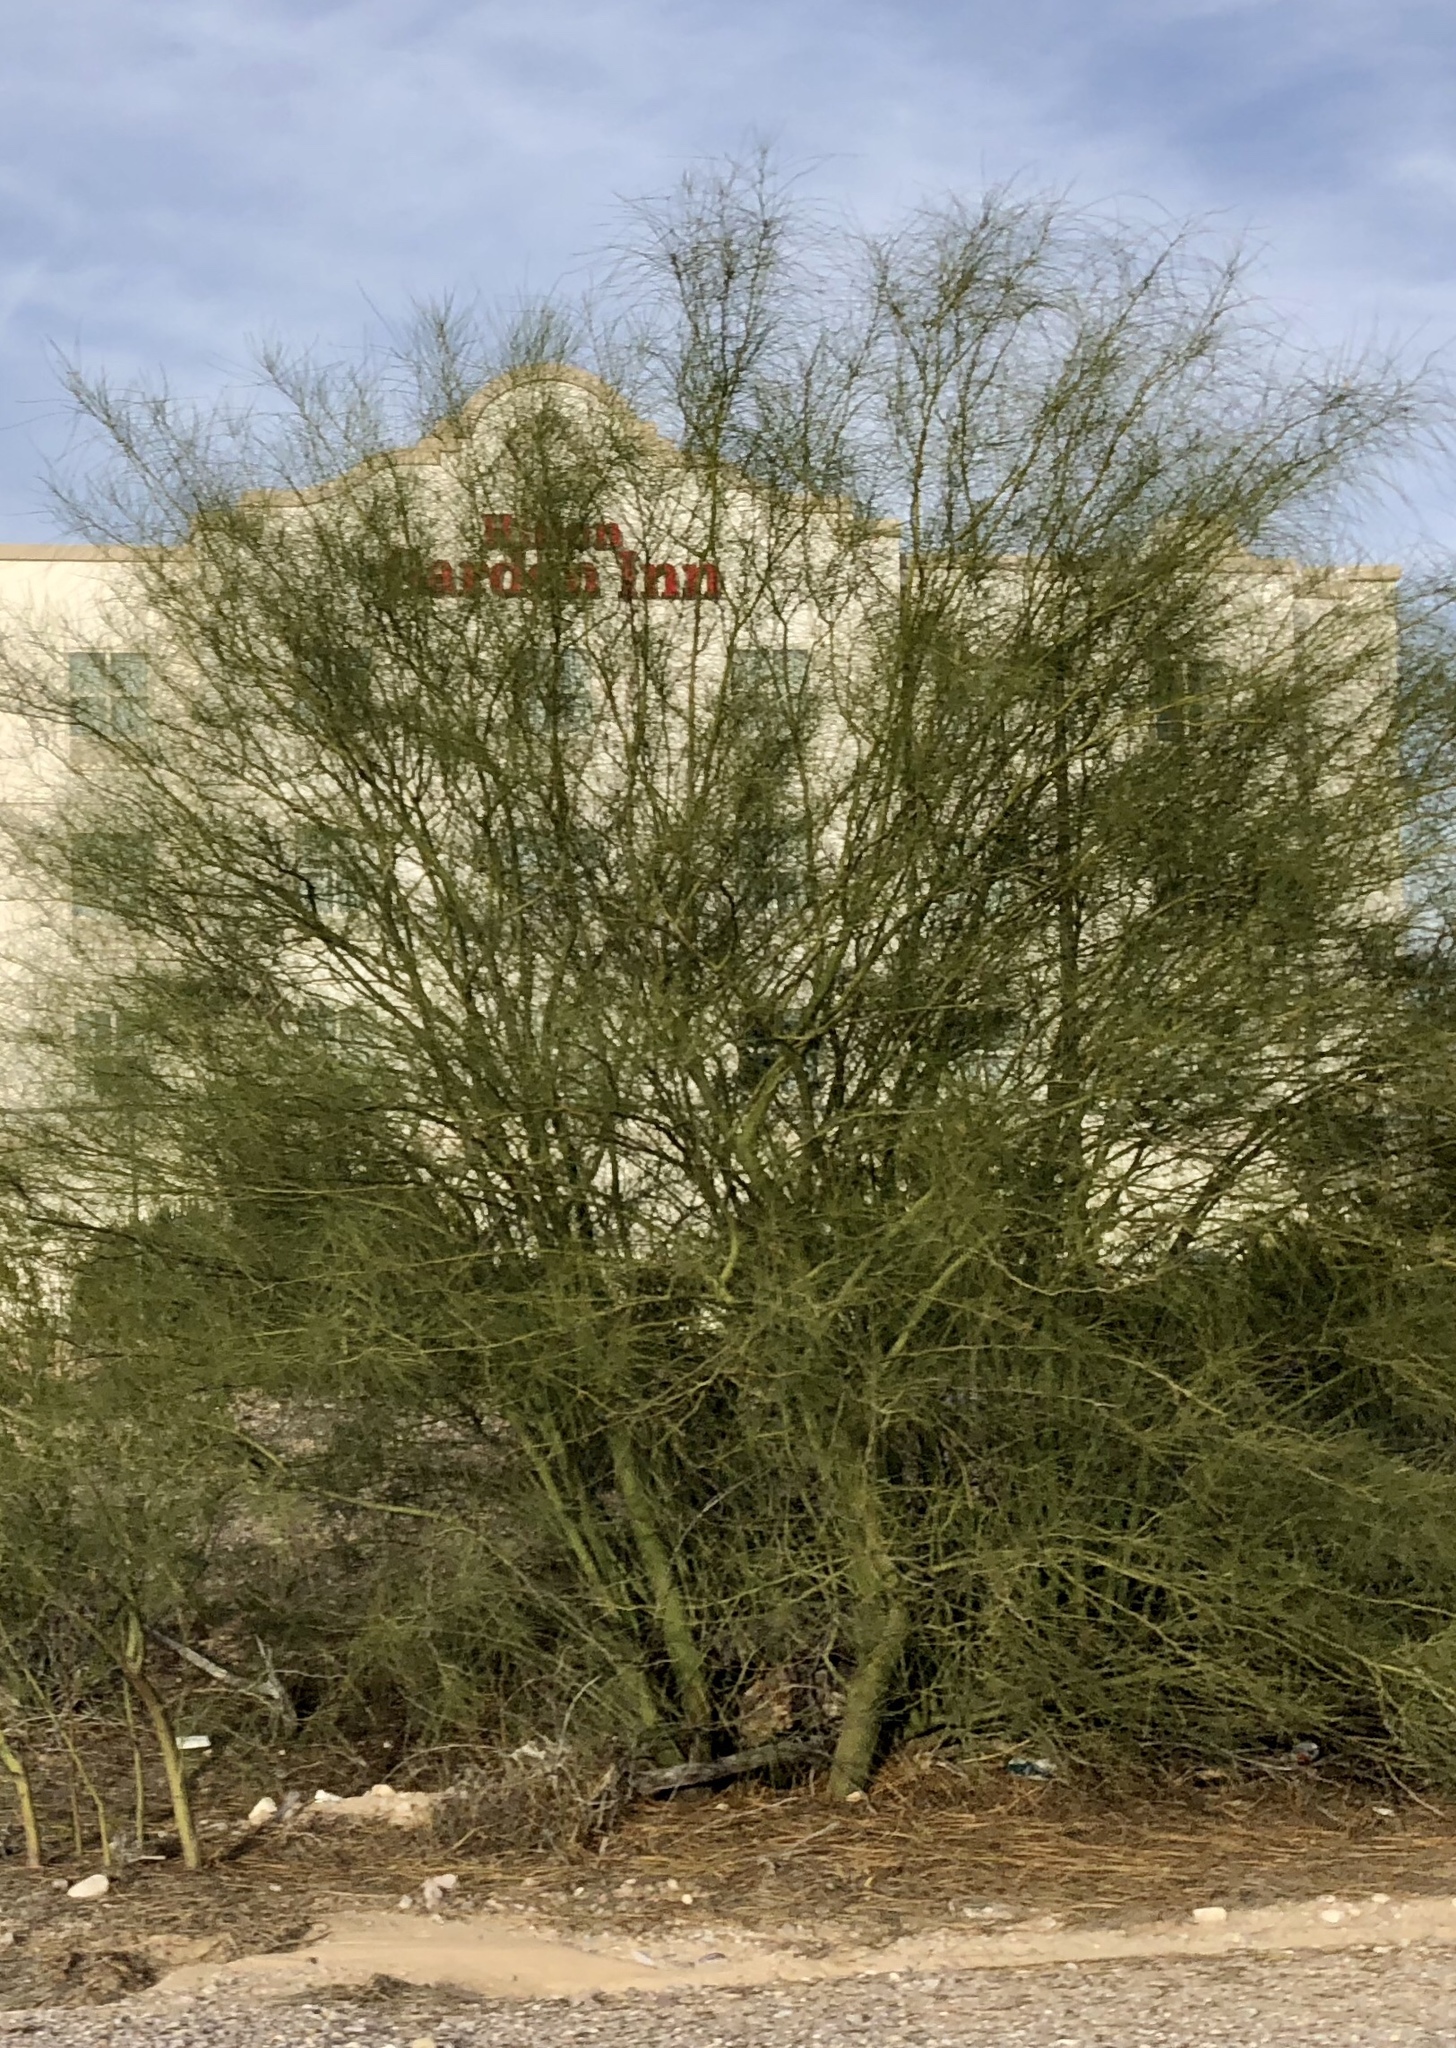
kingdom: Plantae
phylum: Tracheophyta
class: Magnoliopsida
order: Fabales
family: Fabaceae
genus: Parkinsonia
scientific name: Parkinsonia aculeata
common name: Jerusalem thorn
